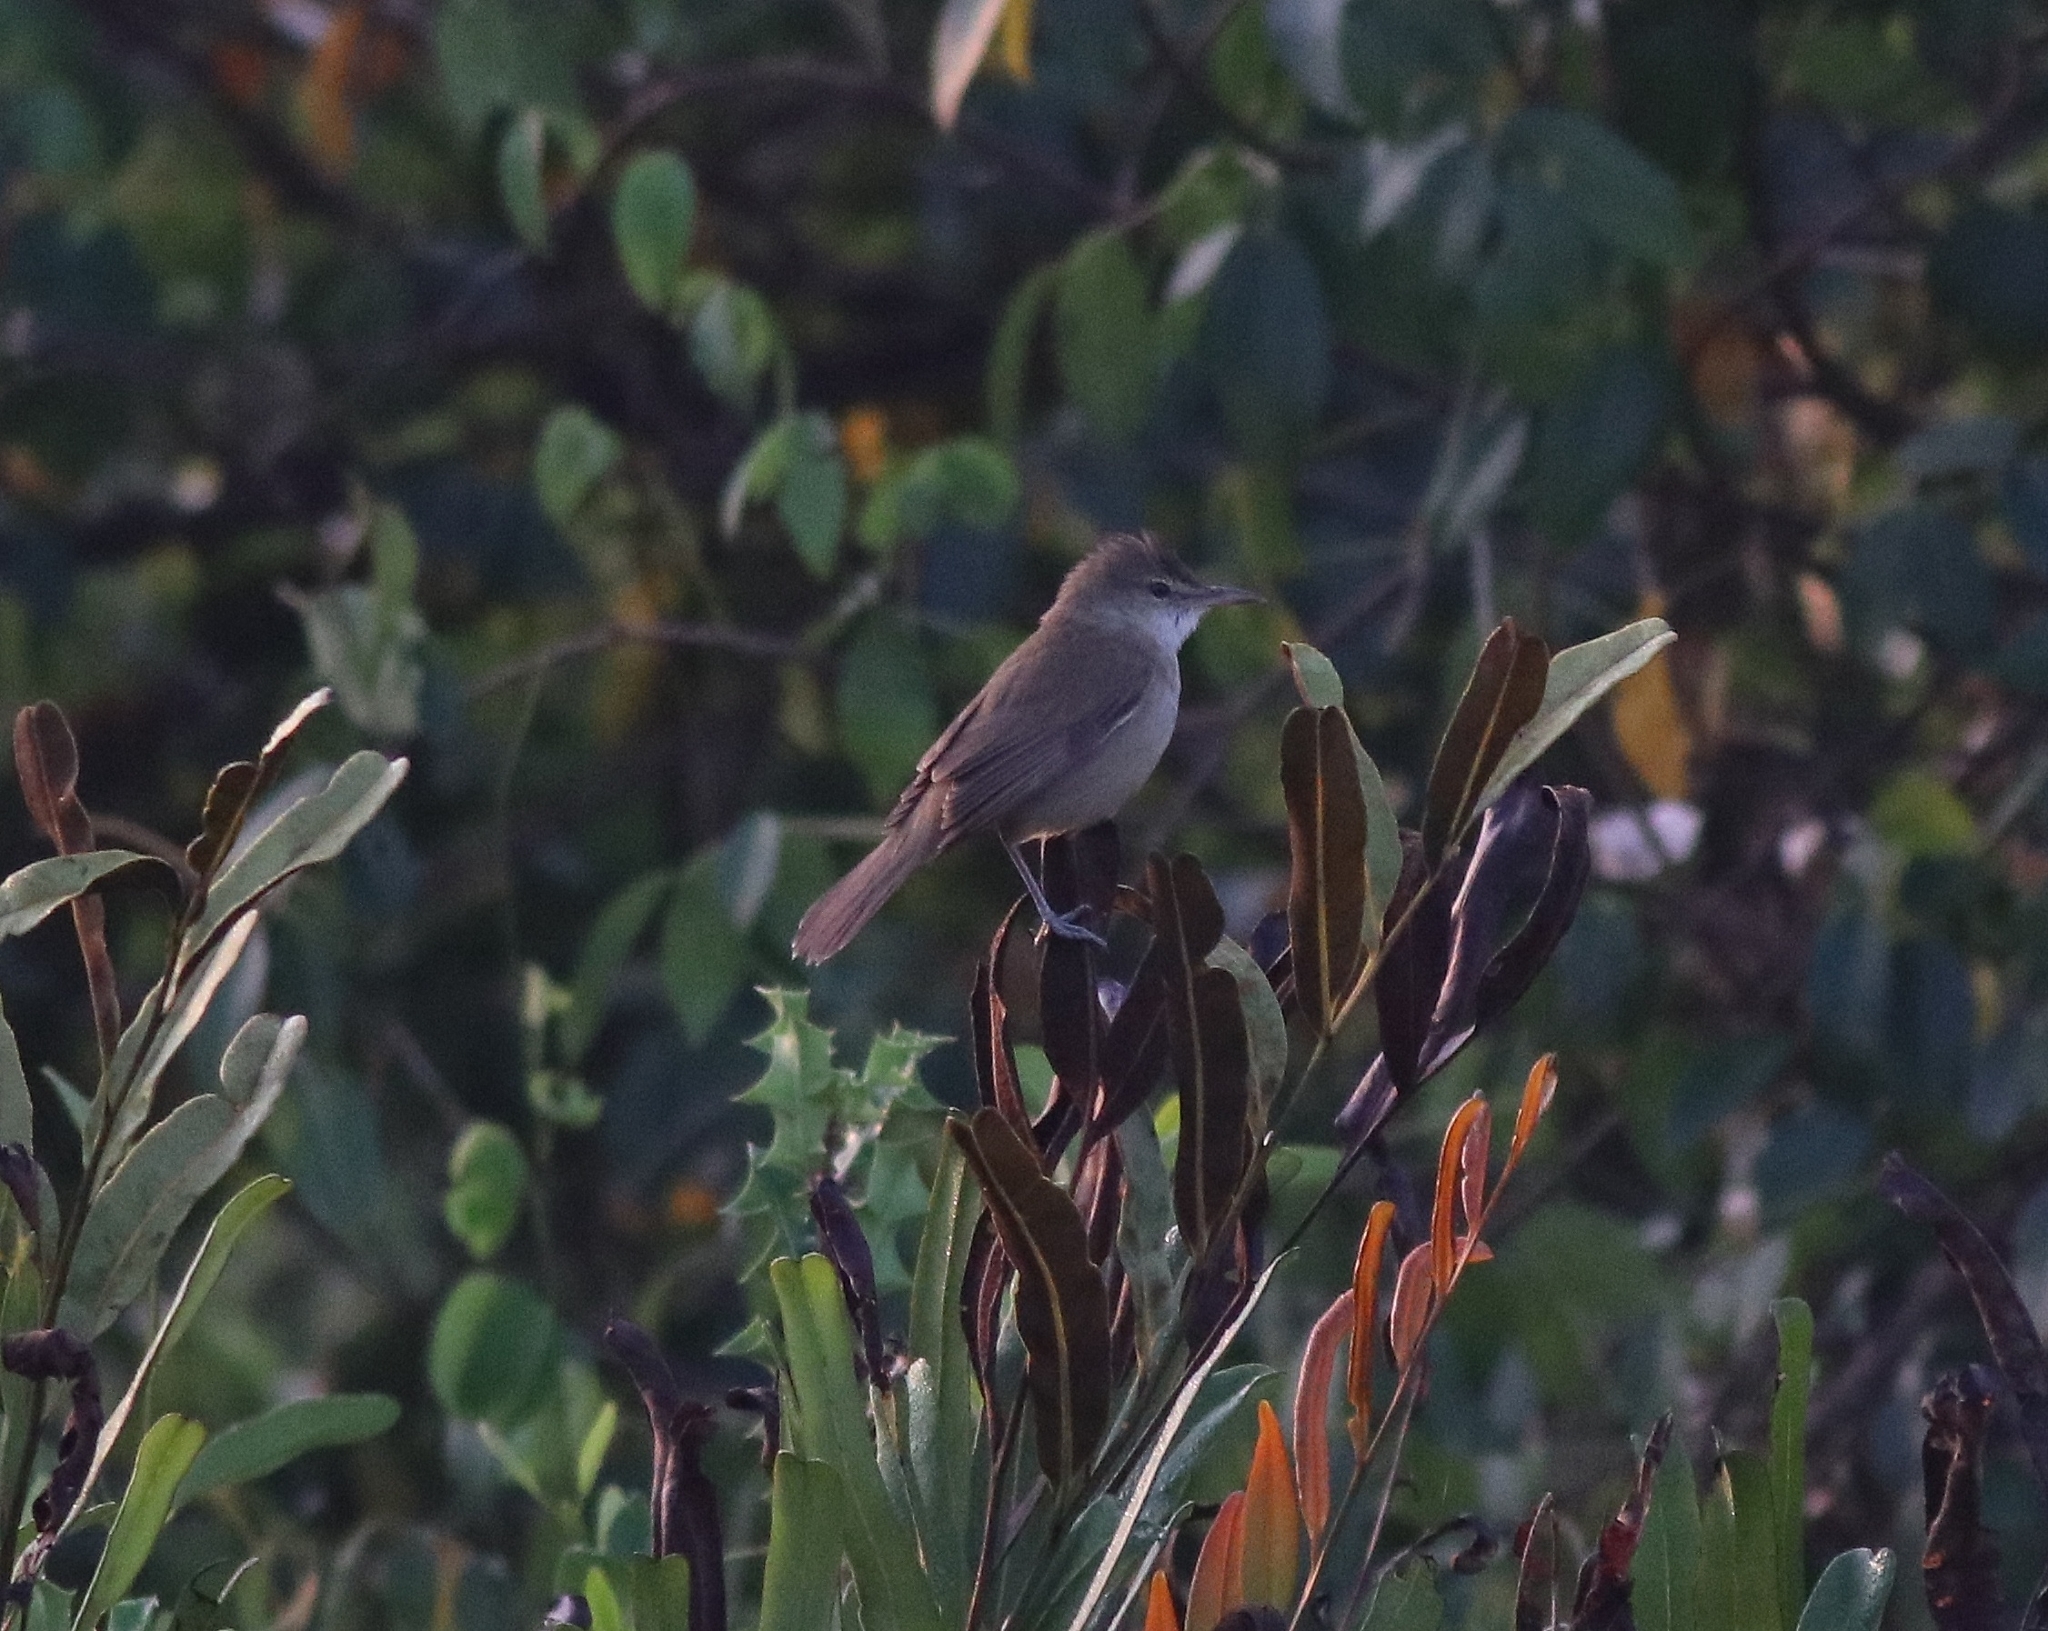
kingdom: Animalia
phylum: Chordata
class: Aves
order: Passeriformes
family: Acrocephalidae
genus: Acrocephalus
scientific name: Acrocephalus stentoreus
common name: Clamorous reed warbler
